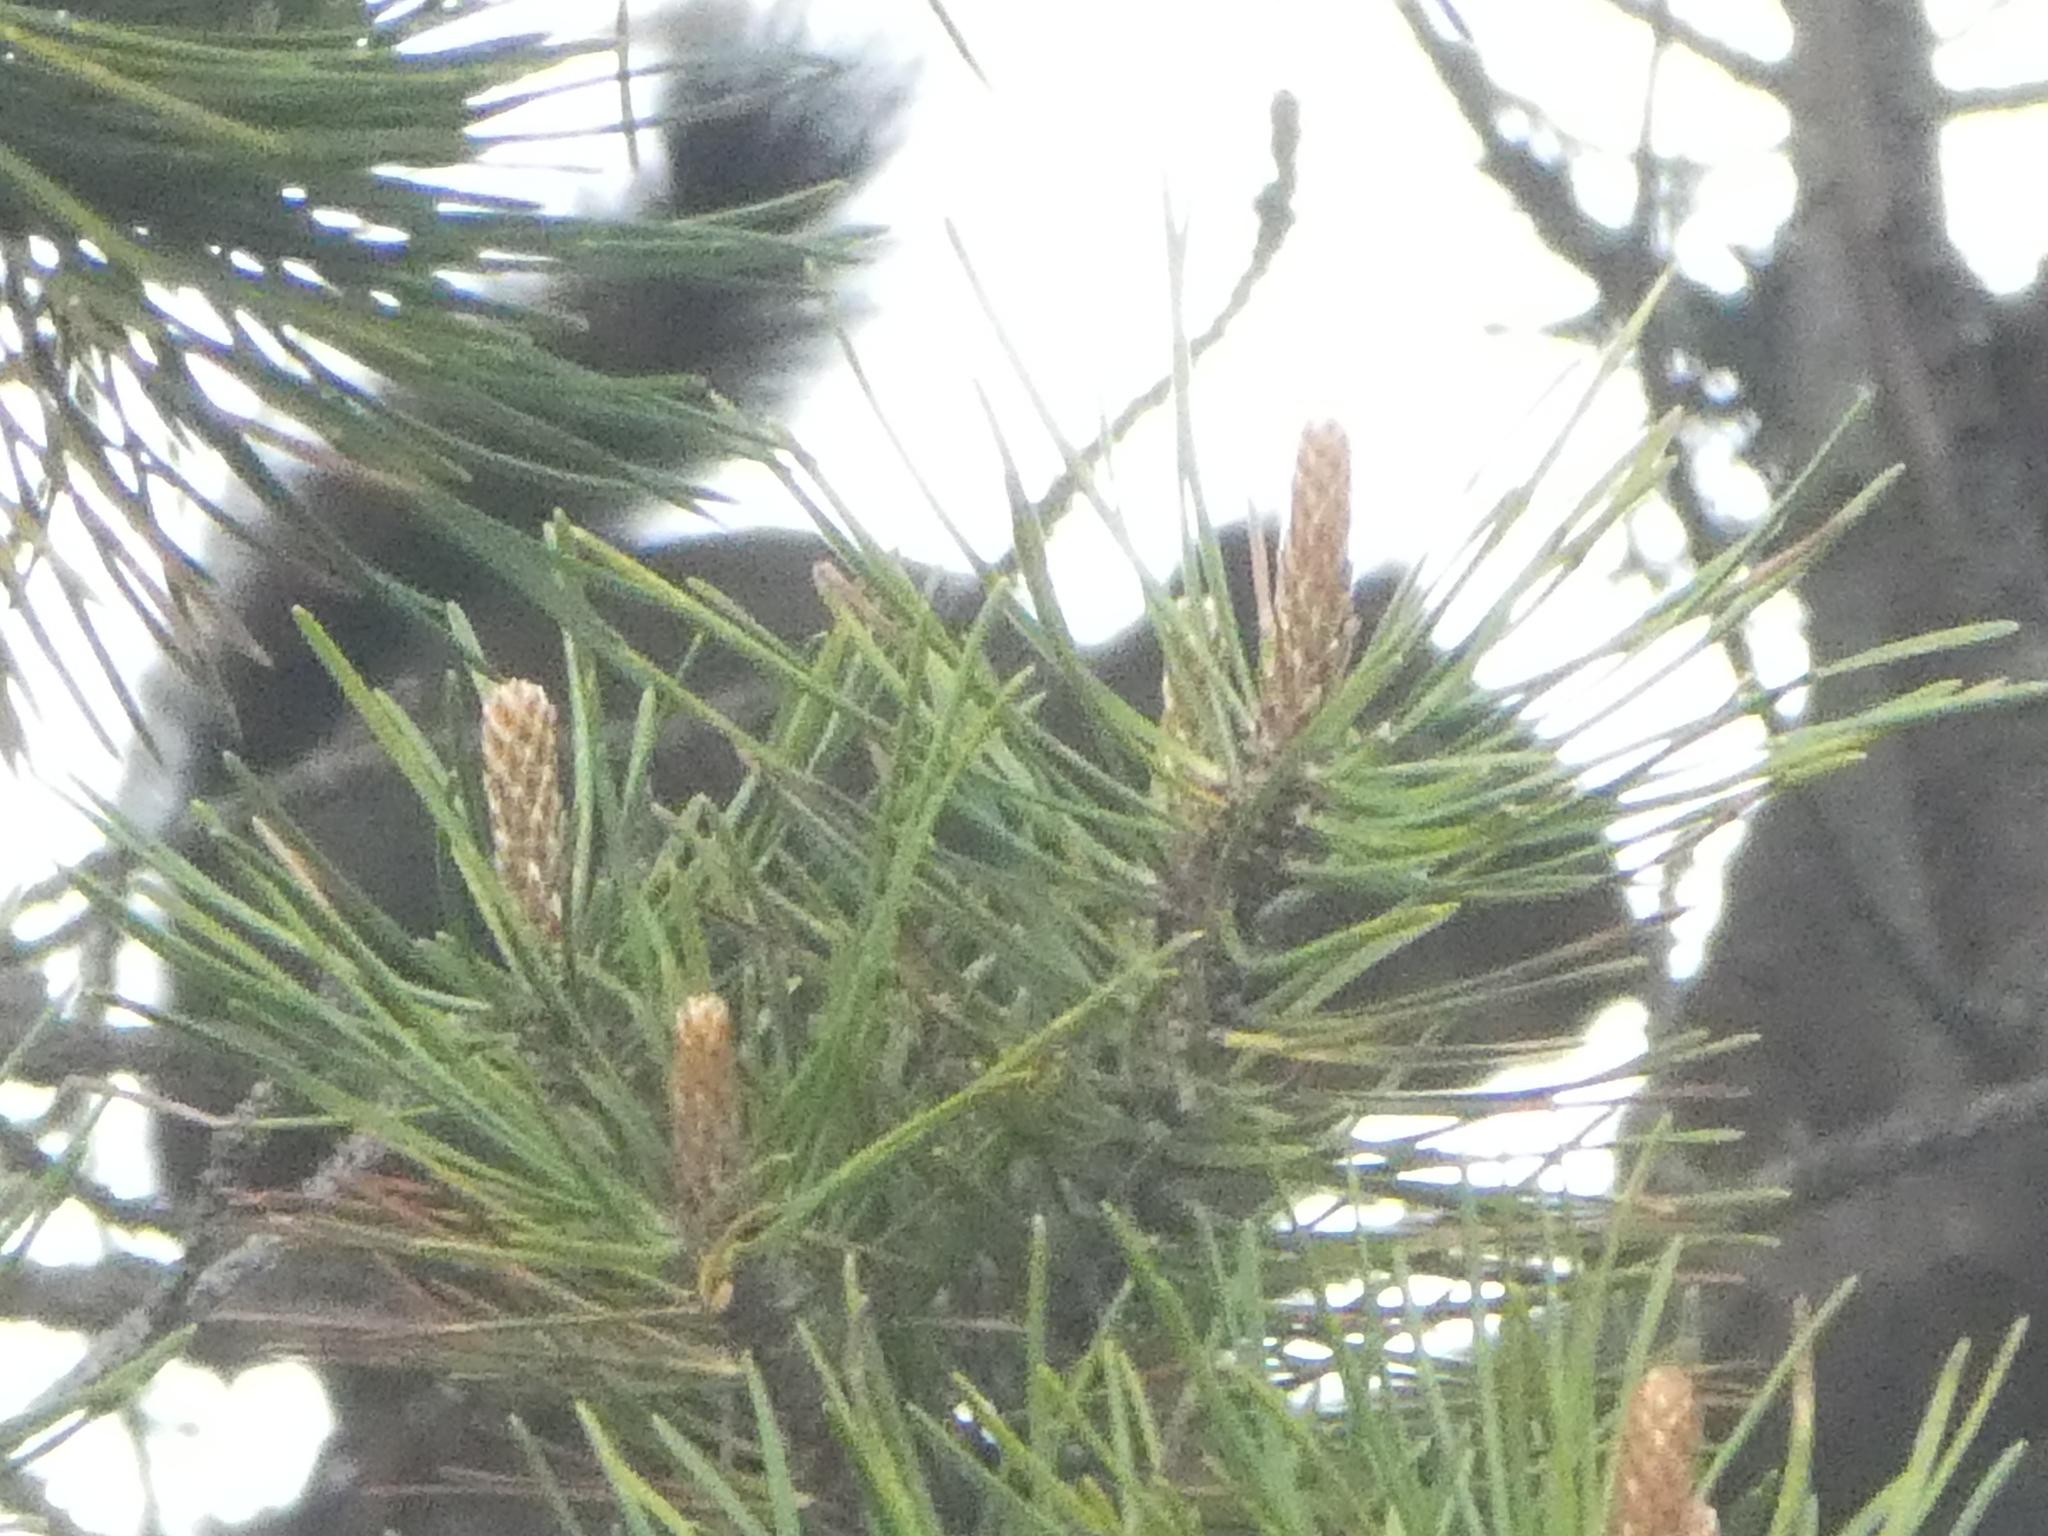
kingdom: Plantae
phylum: Tracheophyta
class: Pinopsida
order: Pinales
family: Pinaceae
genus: Pinus
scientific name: Pinus contorta
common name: Lodgepole pine
